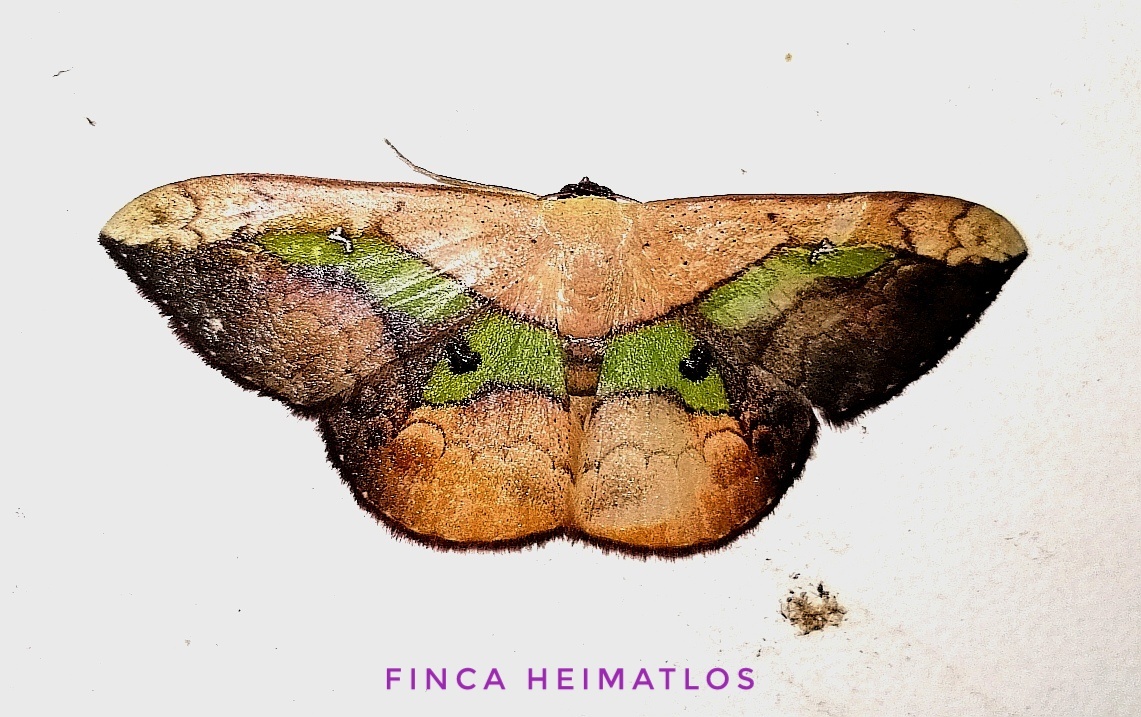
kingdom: Animalia
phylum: Arthropoda
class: Insecta
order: Lepidoptera
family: Geometridae
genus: Semaeopus
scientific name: Semaeopus nisa
